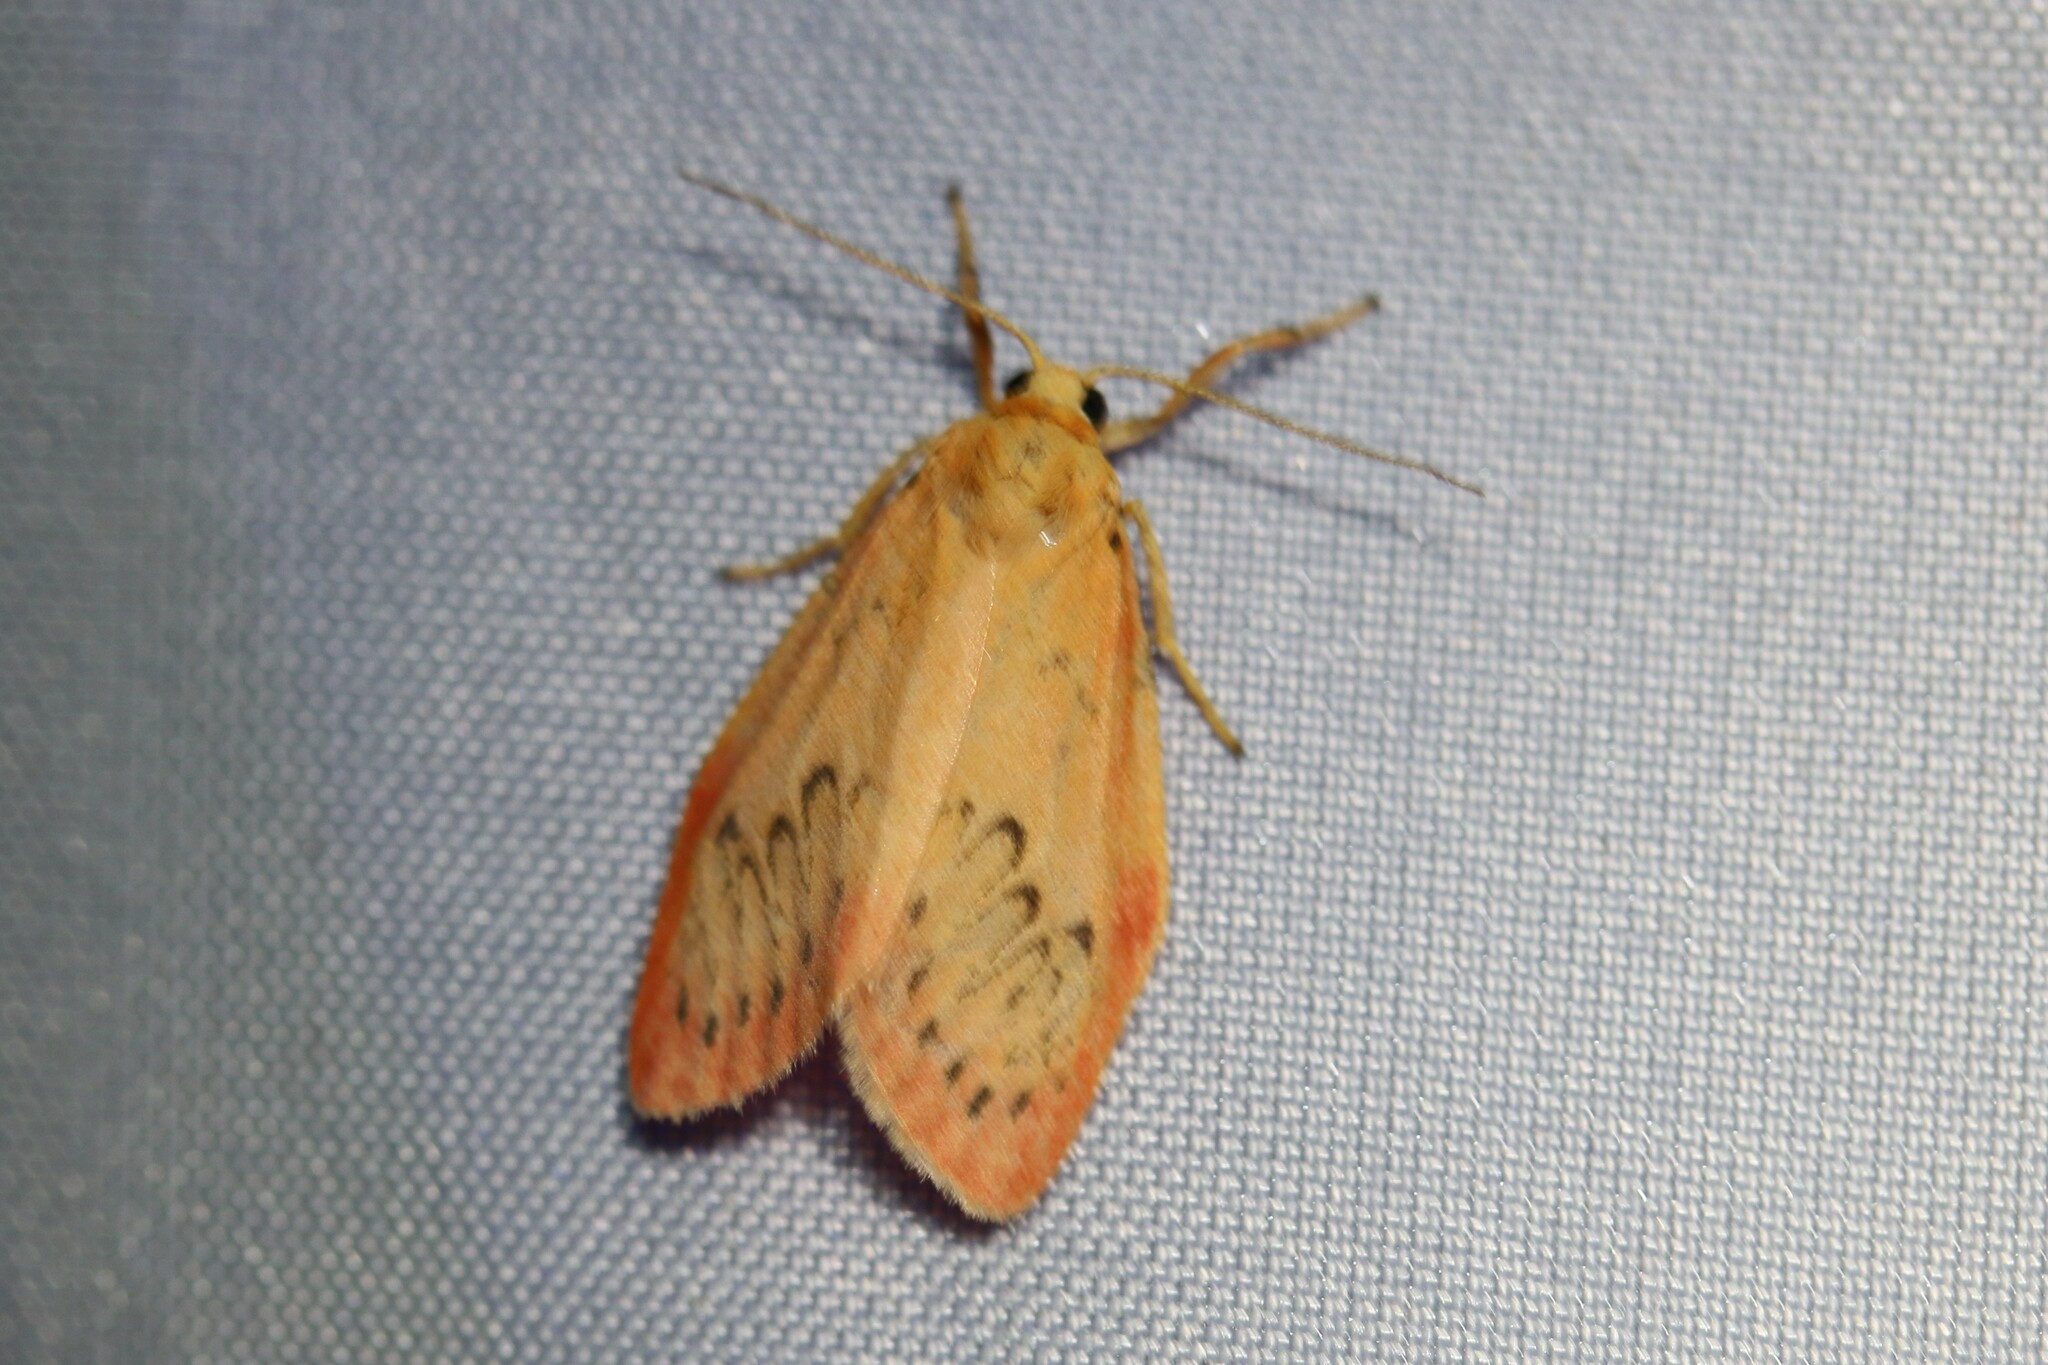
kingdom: Animalia
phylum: Arthropoda
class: Insecta
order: Lepidoptera
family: Erebidae
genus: Miltochrista
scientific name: Miltochrista miniata
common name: Rosy footman
